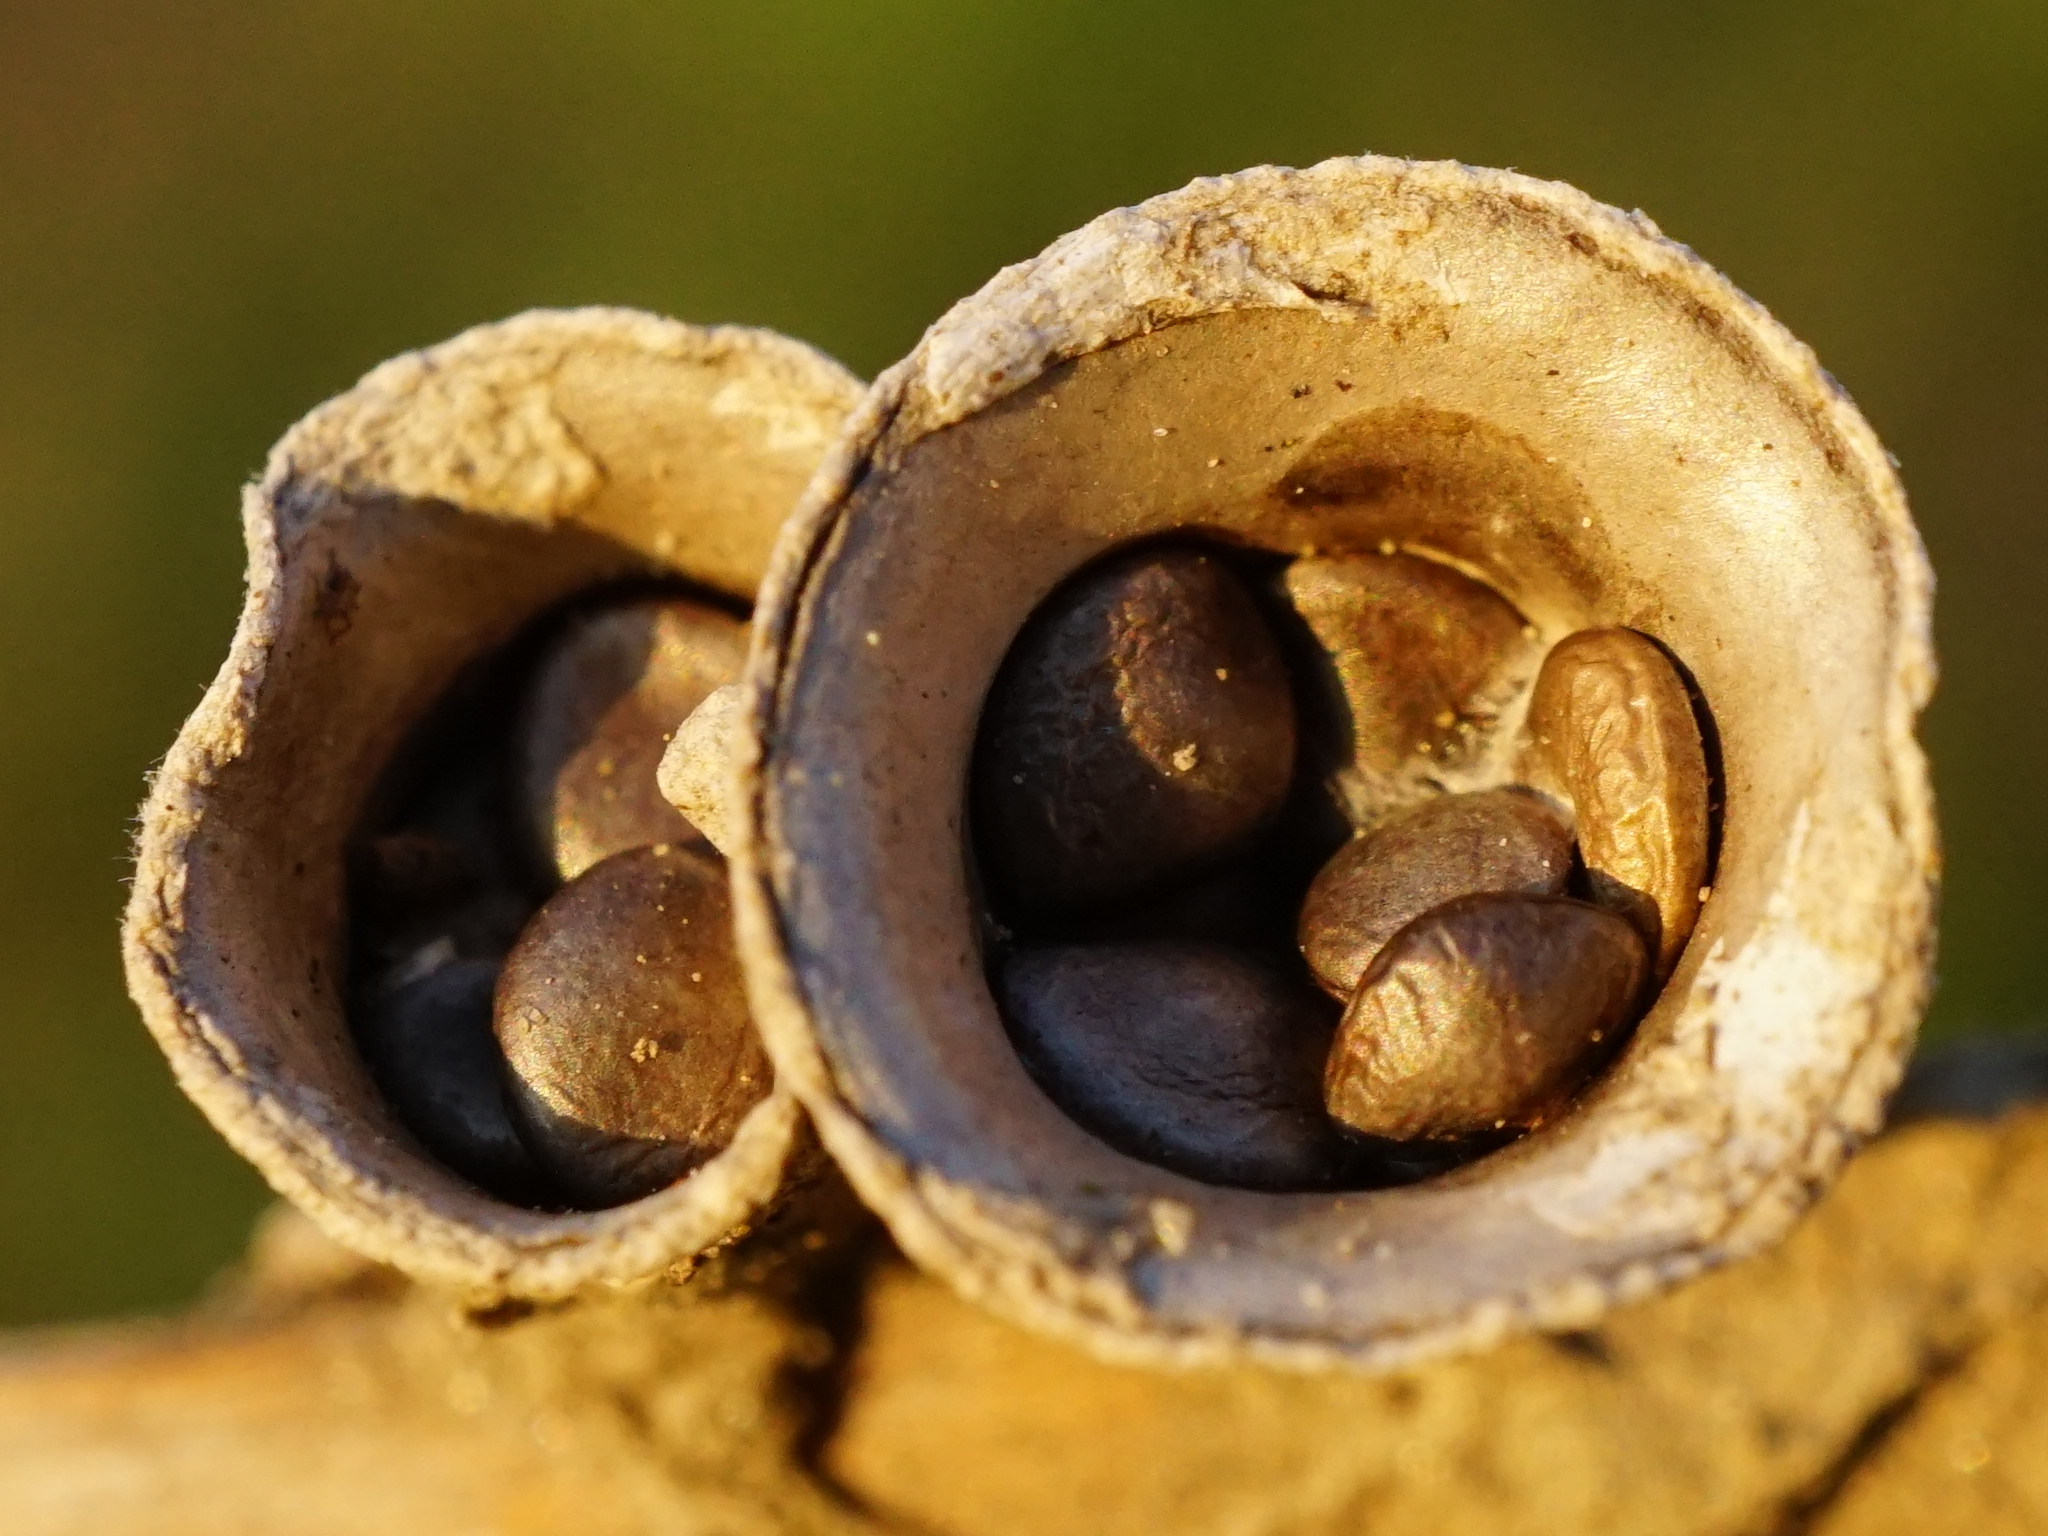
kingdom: Fungi
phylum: Basidiomycota
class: Agaricomycetes
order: Agaricales
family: Nidulariaceae
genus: Crucibulum
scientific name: Crucibulum laeve
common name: Common bird's nest
